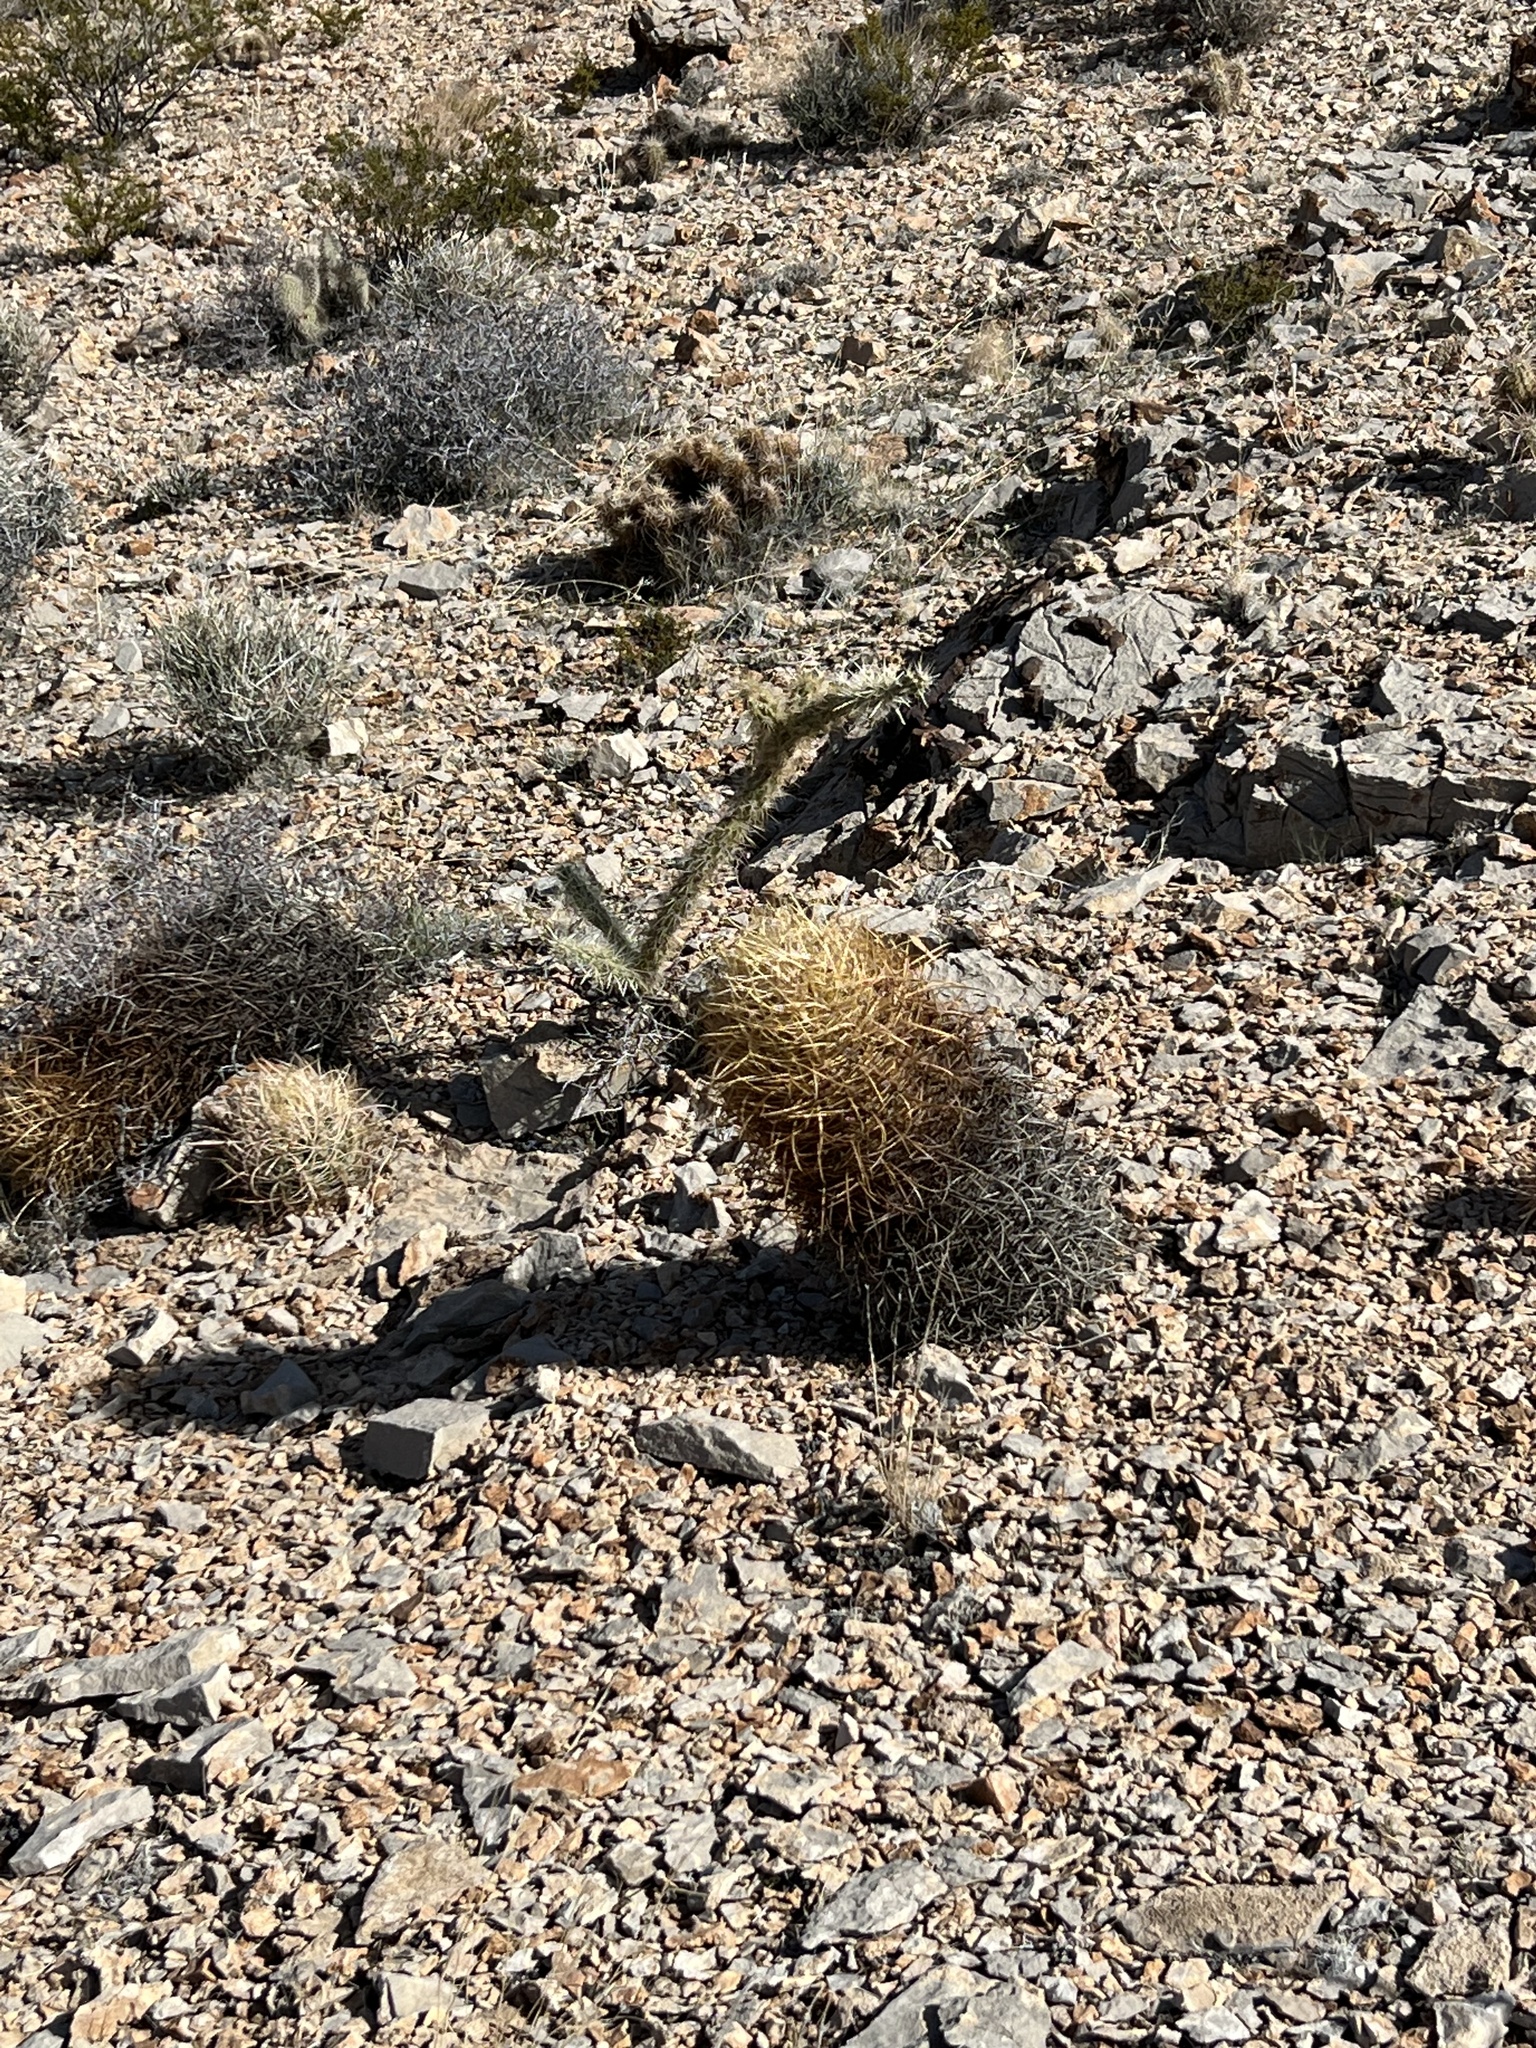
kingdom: Plantae
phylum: Tracheophyta
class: Magnoliopsida
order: Caryophyllales
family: Cactaceae
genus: Ferocactus
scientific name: Ferocactus cylindraceus
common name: California barrel cactus
